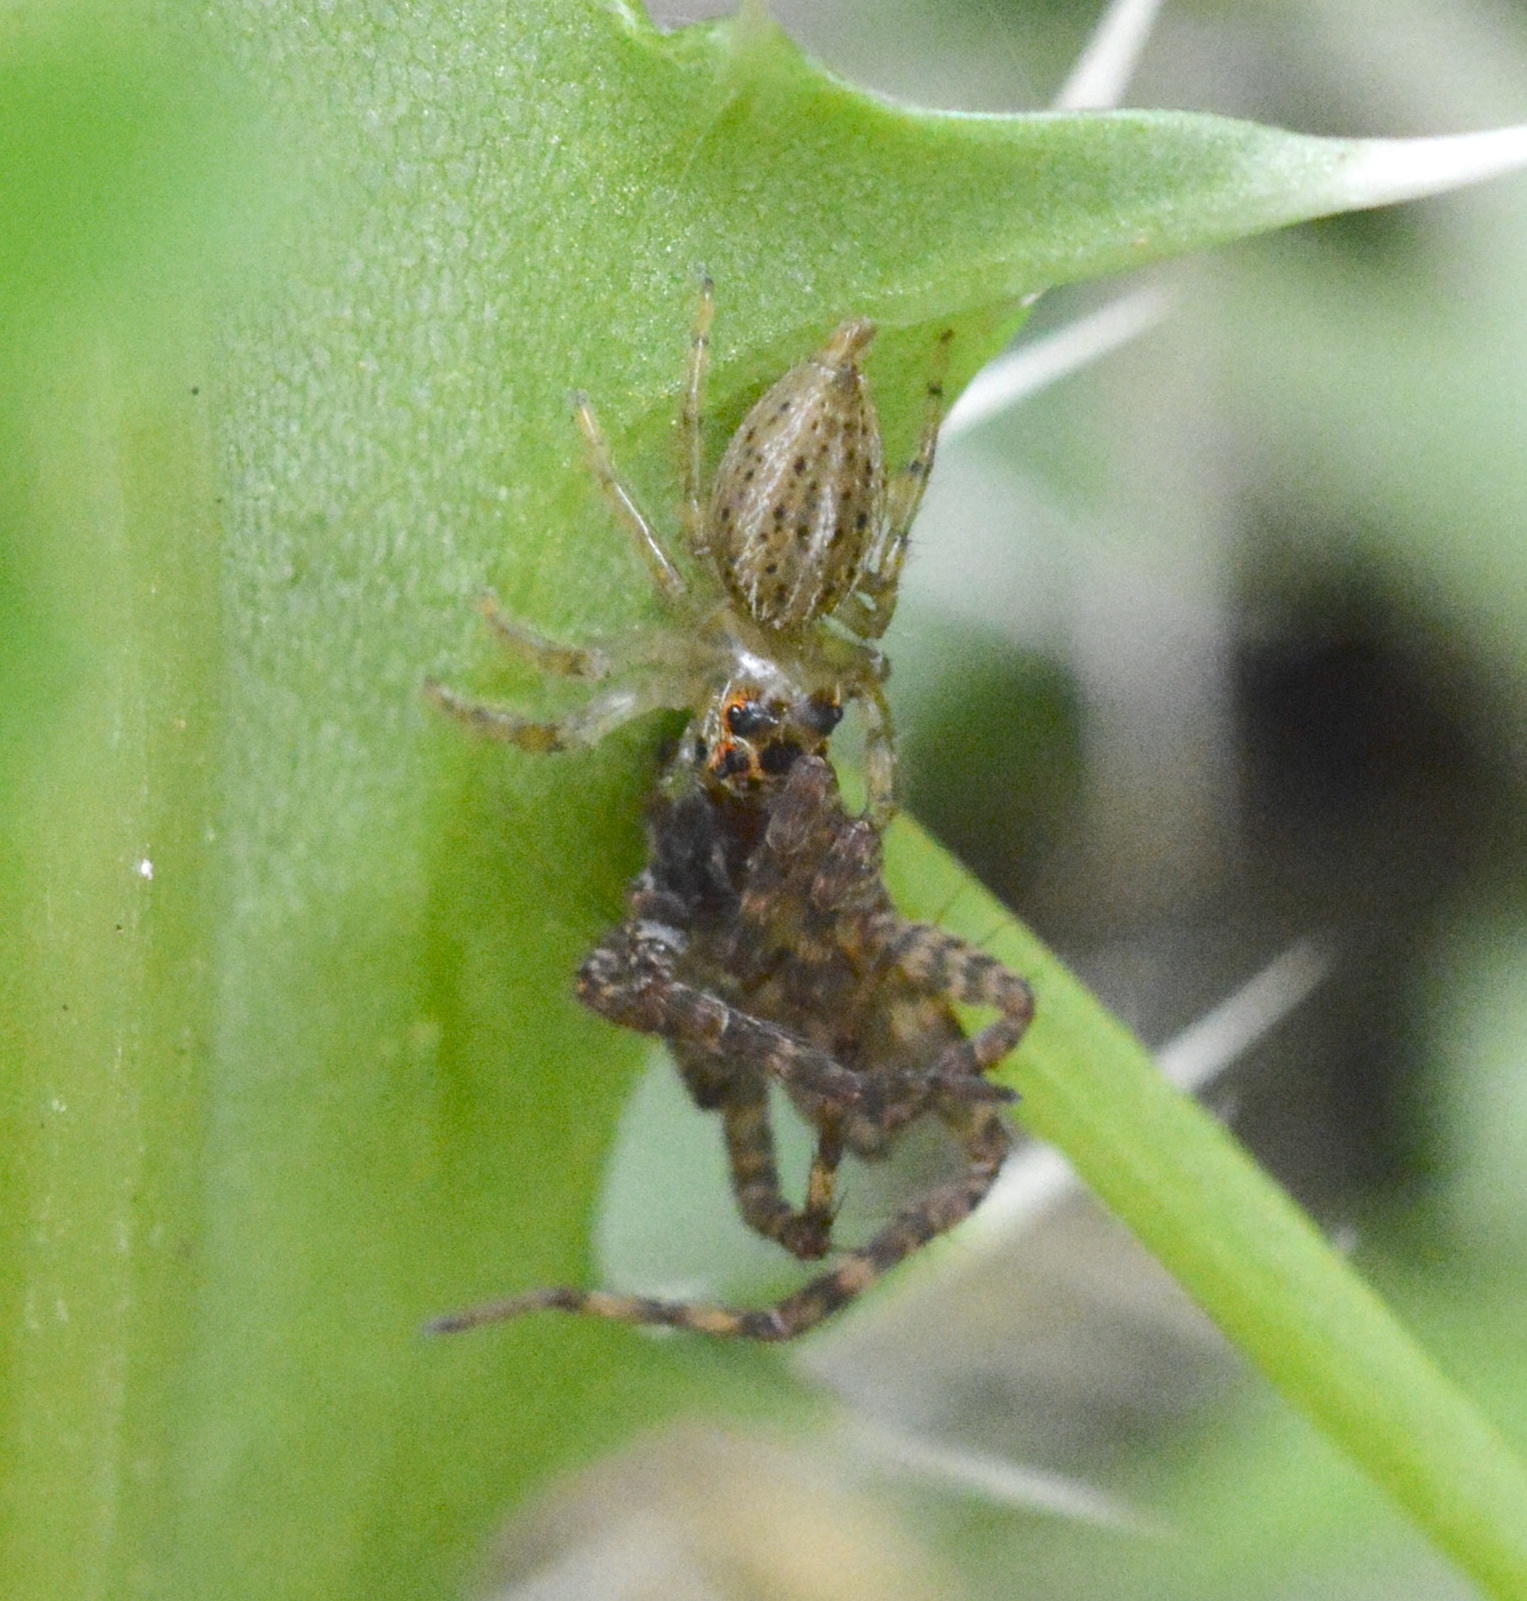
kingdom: Animalia
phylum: Arthropoda
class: Arachnida
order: Araneae
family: Salticidae
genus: Colonus
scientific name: Colonus sylvanus
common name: Jumping spiders
